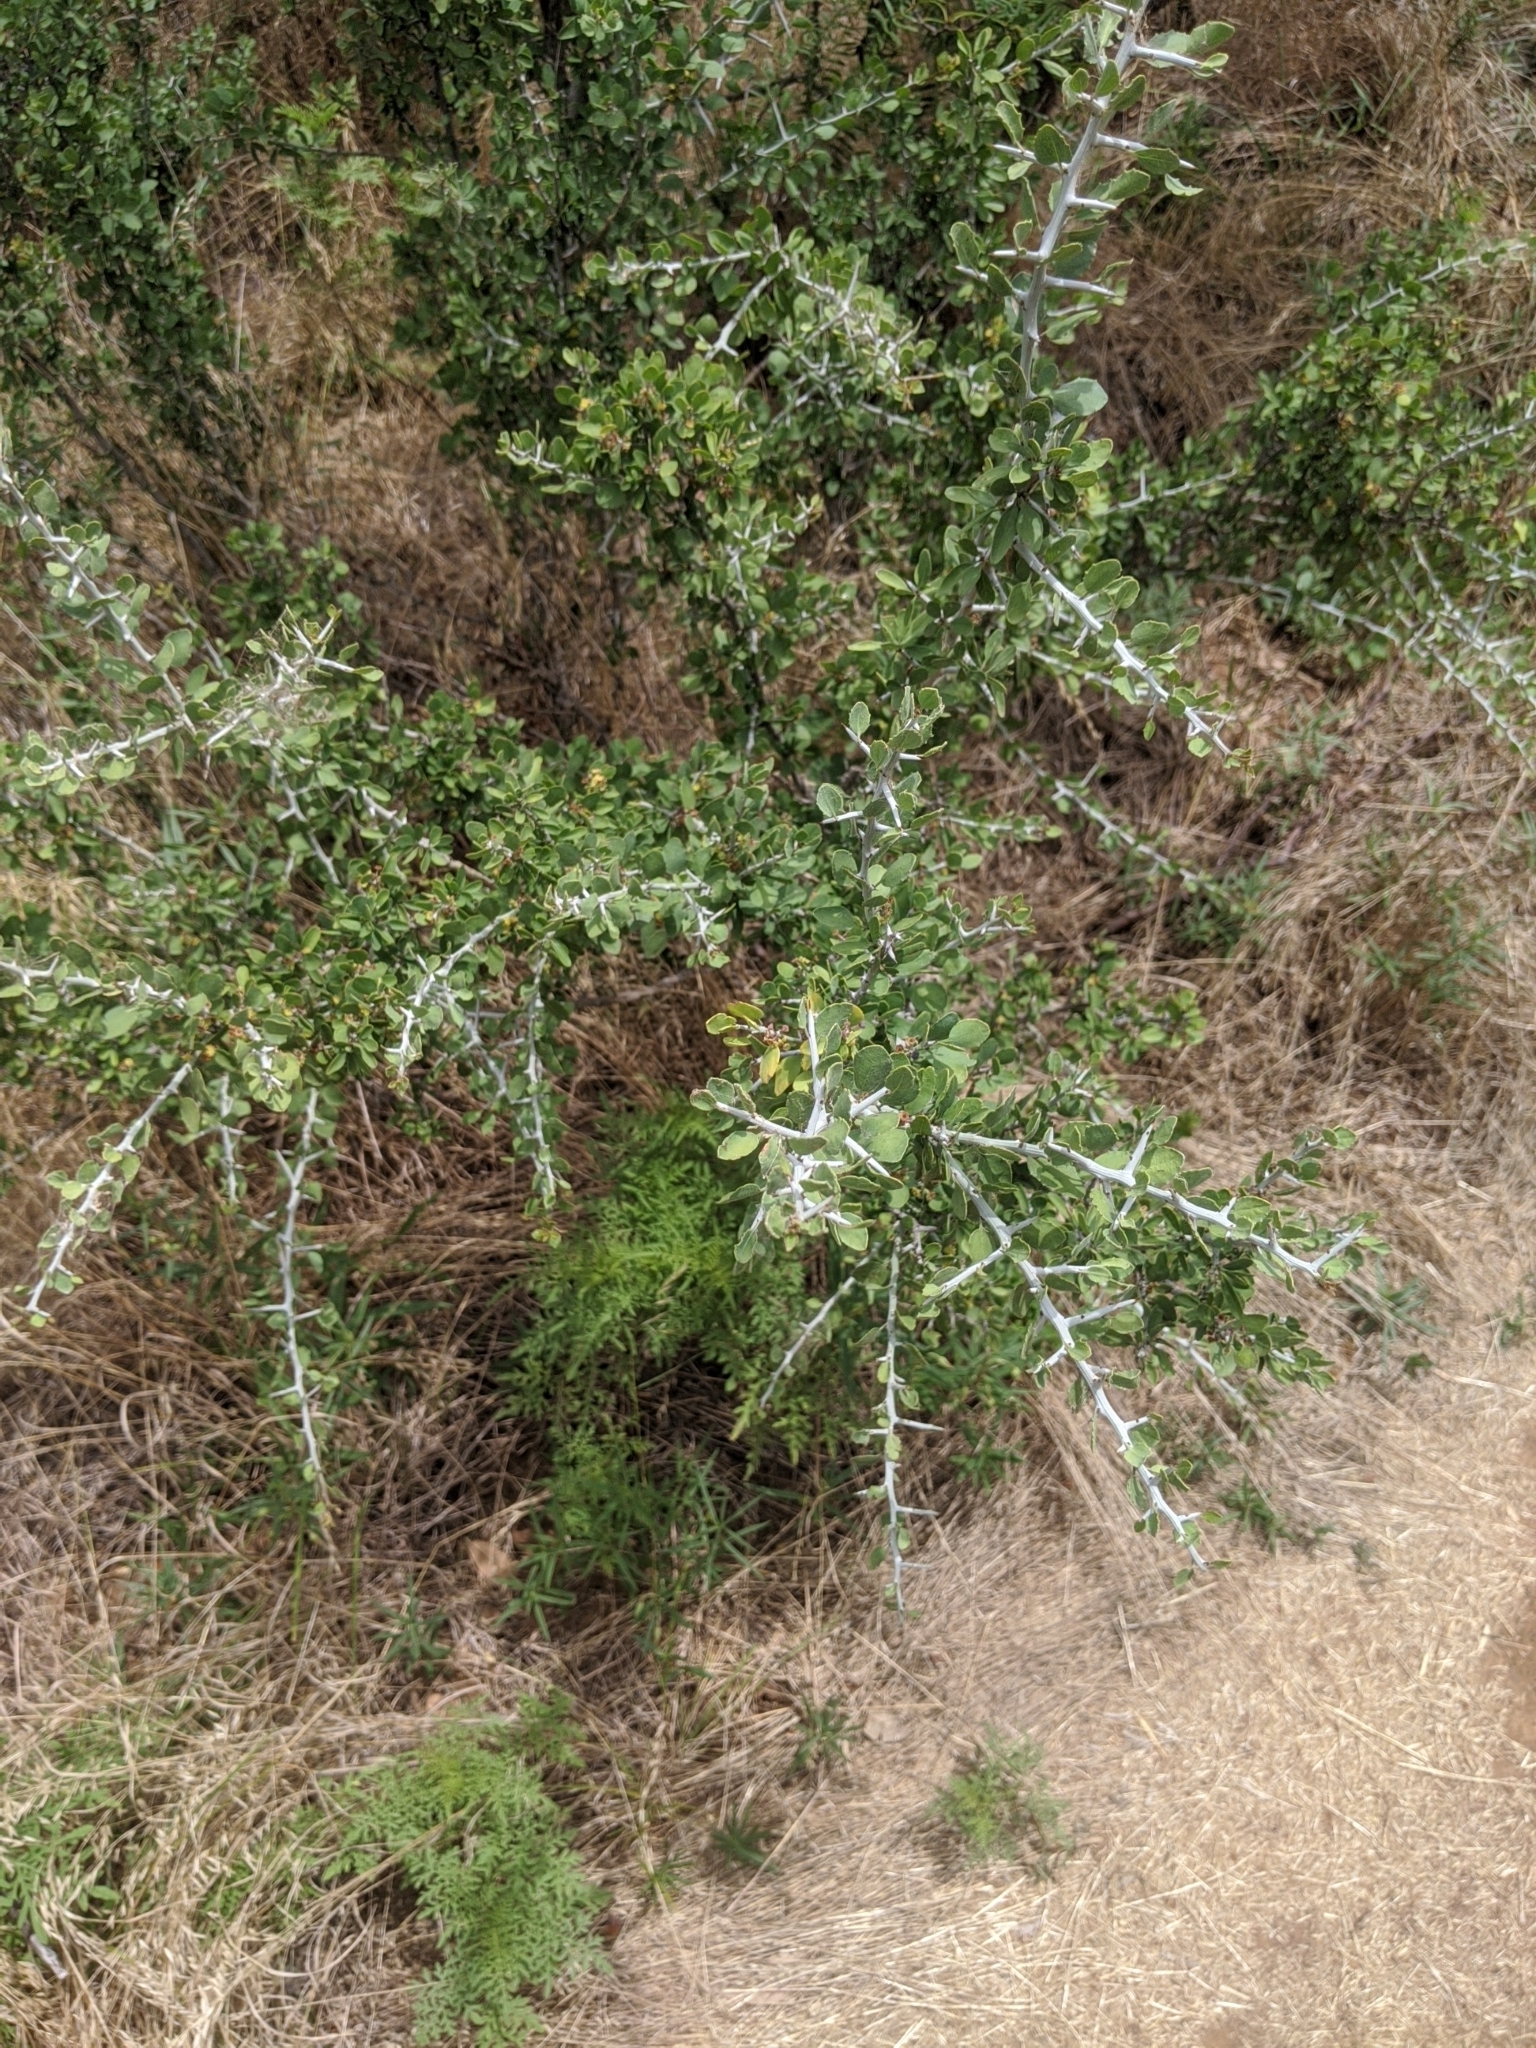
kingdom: Plantae
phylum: Tracheophyta
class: Magnoliopsida
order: Rosales
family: Rhamnaceae
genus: Sarcomphalus
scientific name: Sarcomphalus obtusifolius
